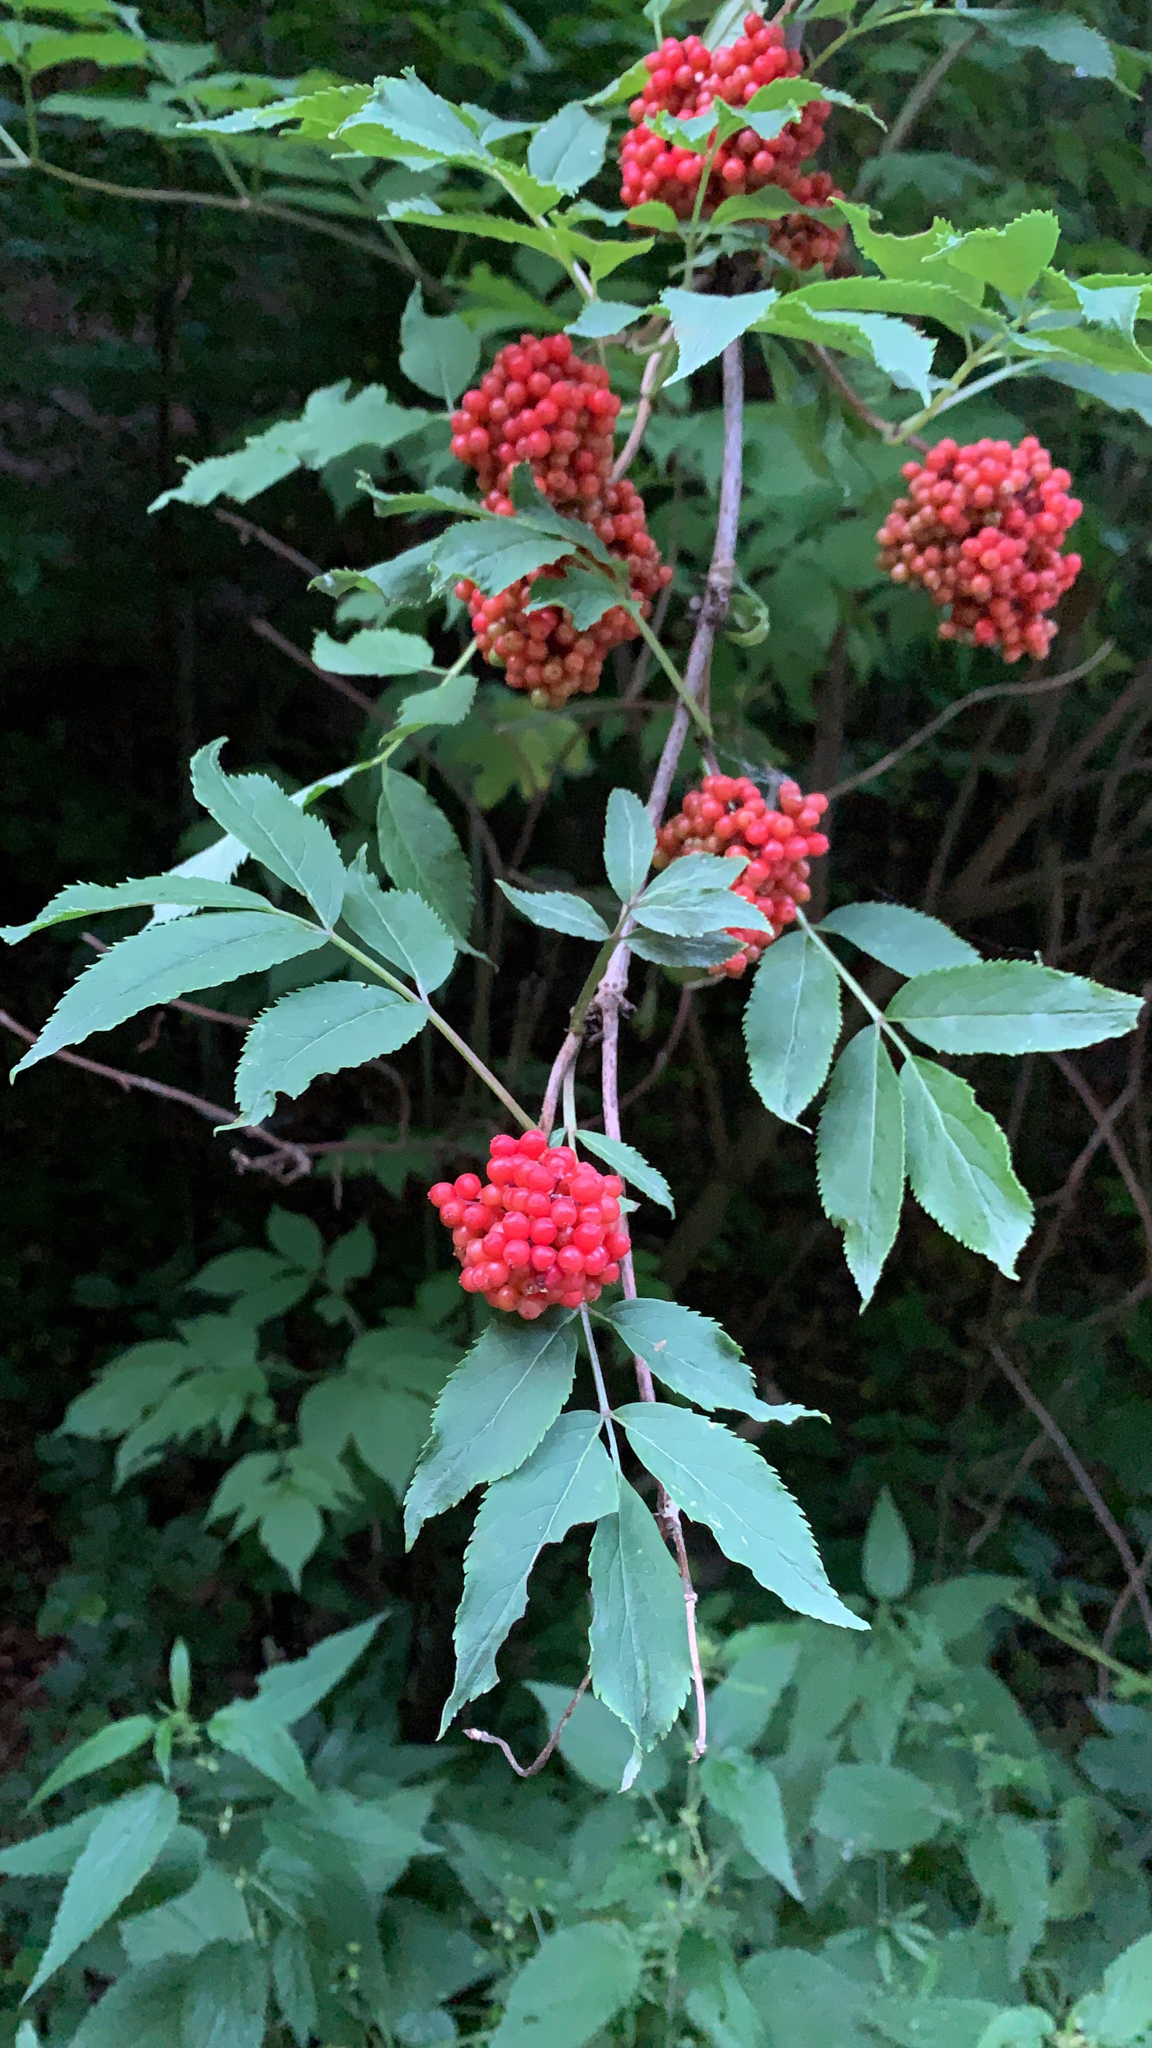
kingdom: Plantae
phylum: Tracheophyta
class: Magnoliopsida
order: Dipsacales
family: Viburnaceae
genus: Sambucus
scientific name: Sambucus racemosa
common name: Red-berried elder
